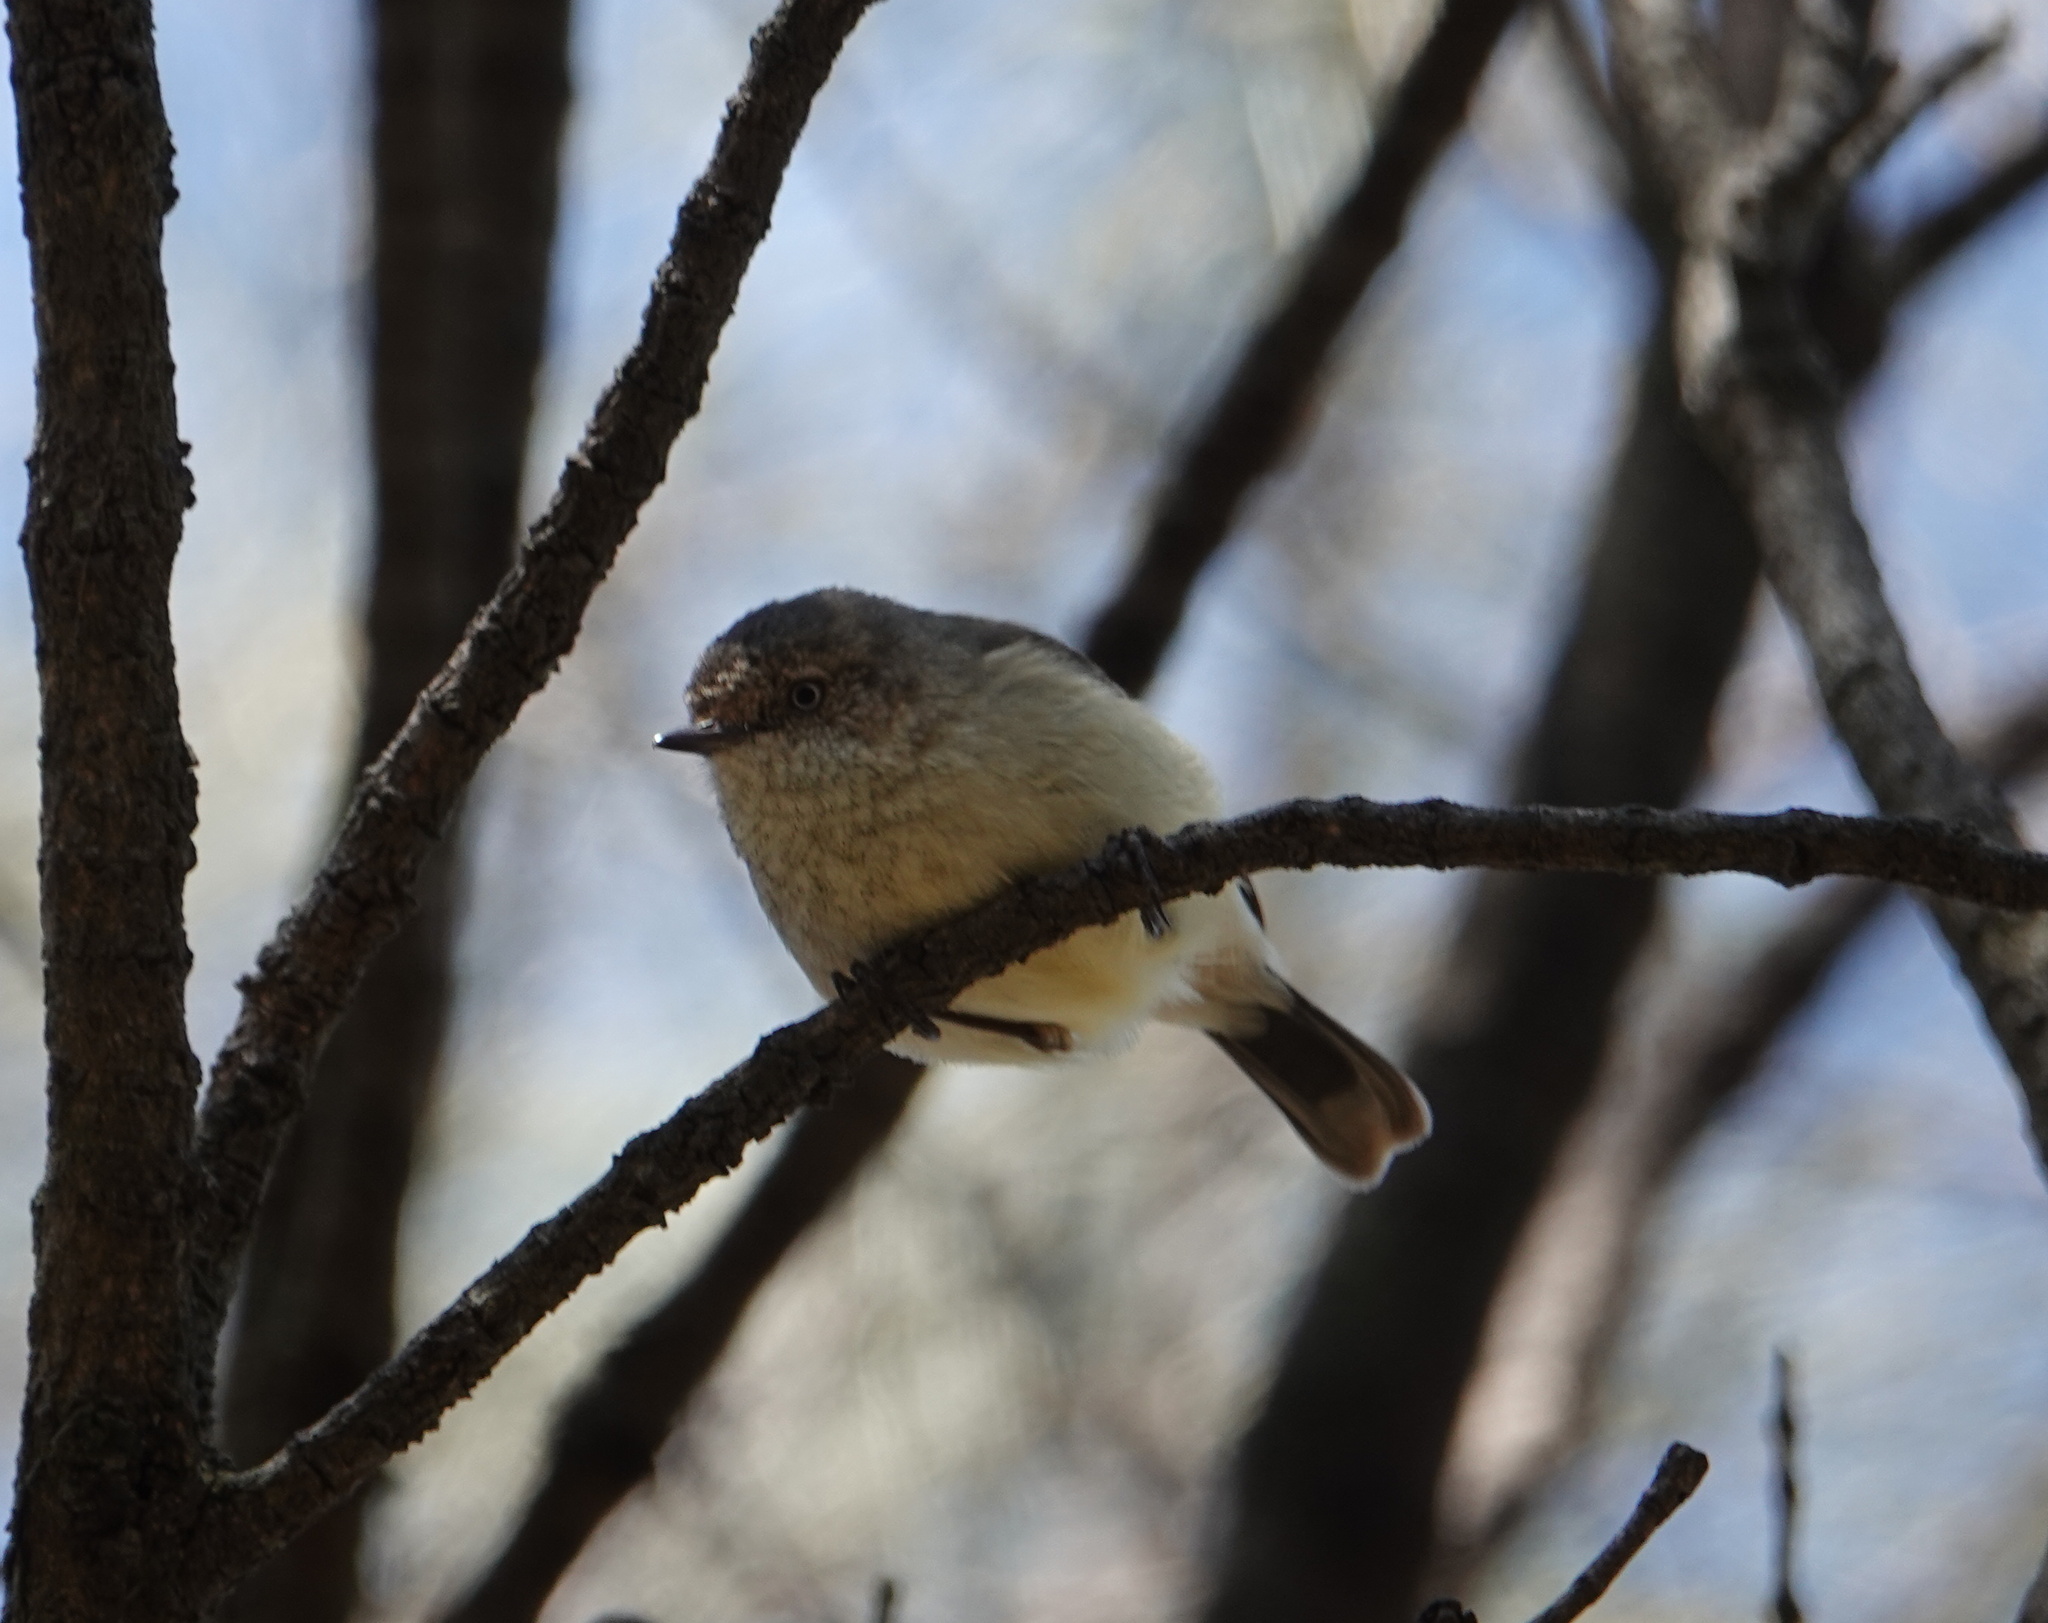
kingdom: Animalia
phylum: Chordata
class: Aves
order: Passeriformes
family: Acanthizidae
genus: Acanthiza
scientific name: Acanthiza reguloides
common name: Buff-rumped thornbill
